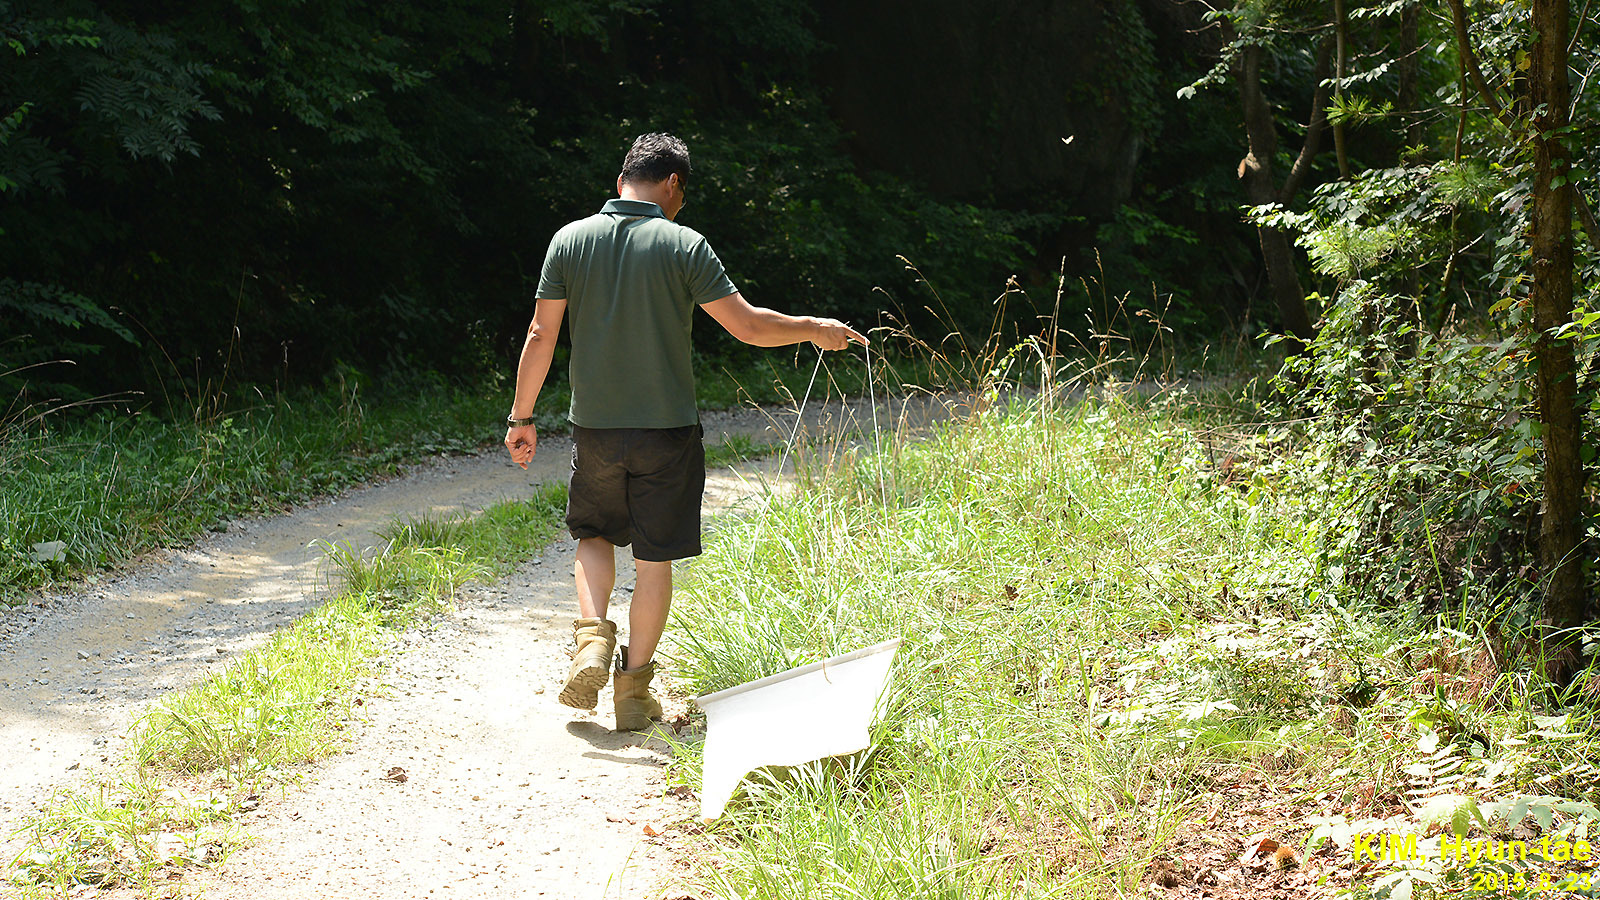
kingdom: Animalia
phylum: Arthropoda
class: Arachnida
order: Ixodida
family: Ixodidae
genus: Haemaphysalis
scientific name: Haemaphysalis longicornis
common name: Bush tick
